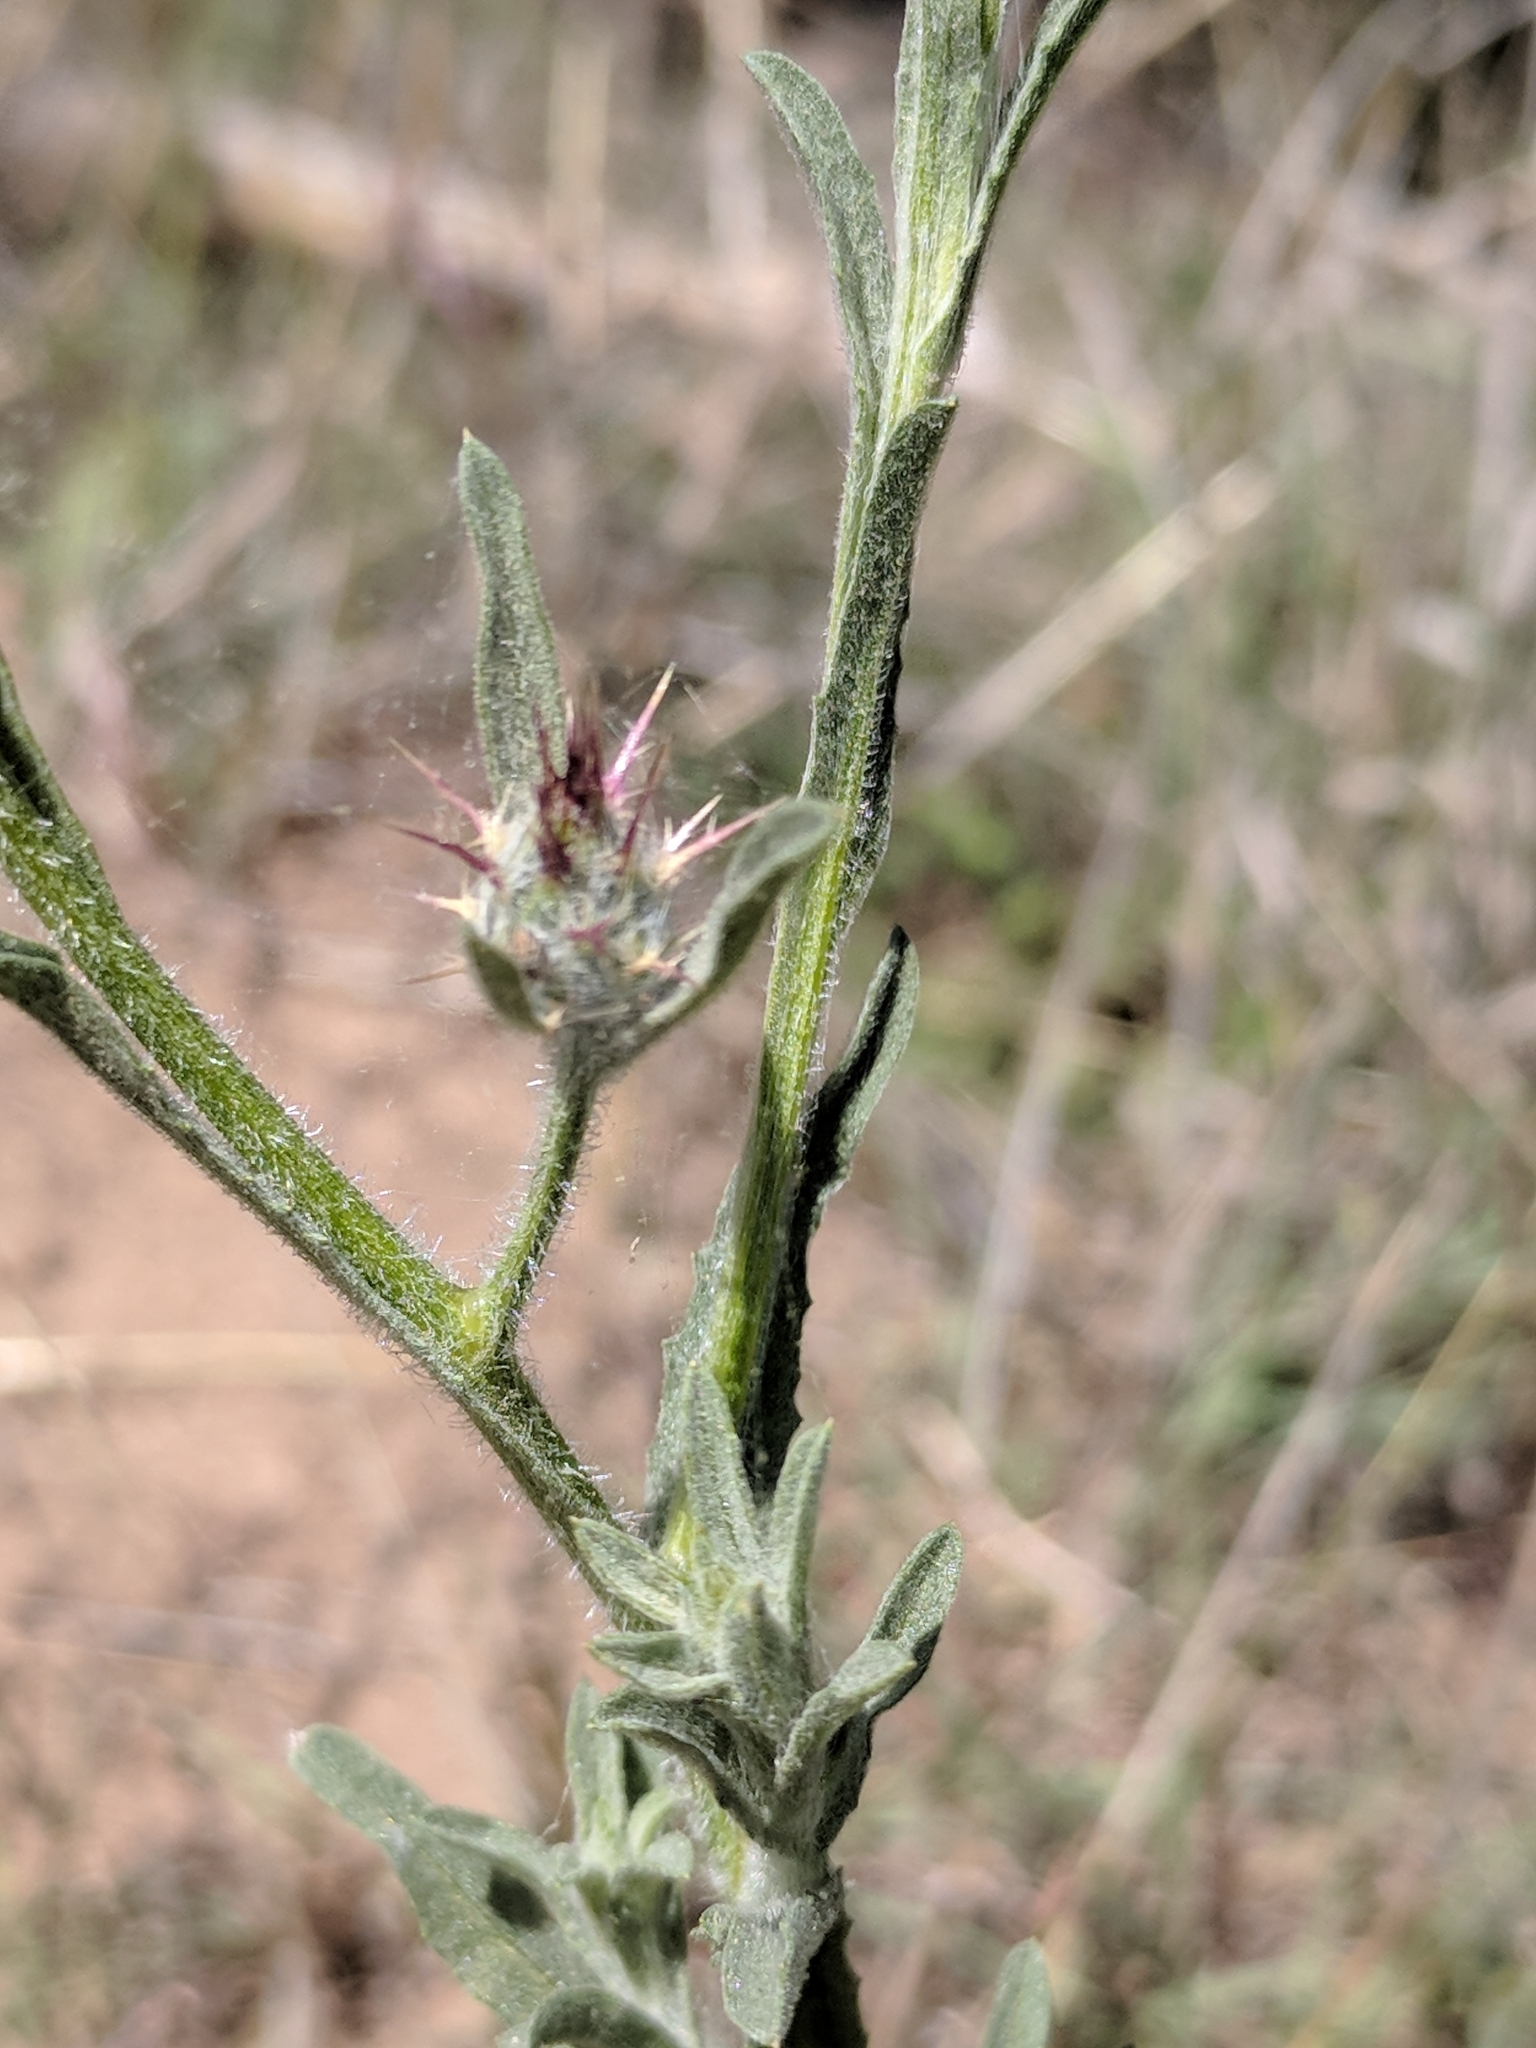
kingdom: Plantae
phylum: Tracheophyta
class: Magnoliopsida
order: Asterales
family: Asteraceae
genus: Centaurea
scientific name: Centaurea melitensis
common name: Maltese star-thistle
